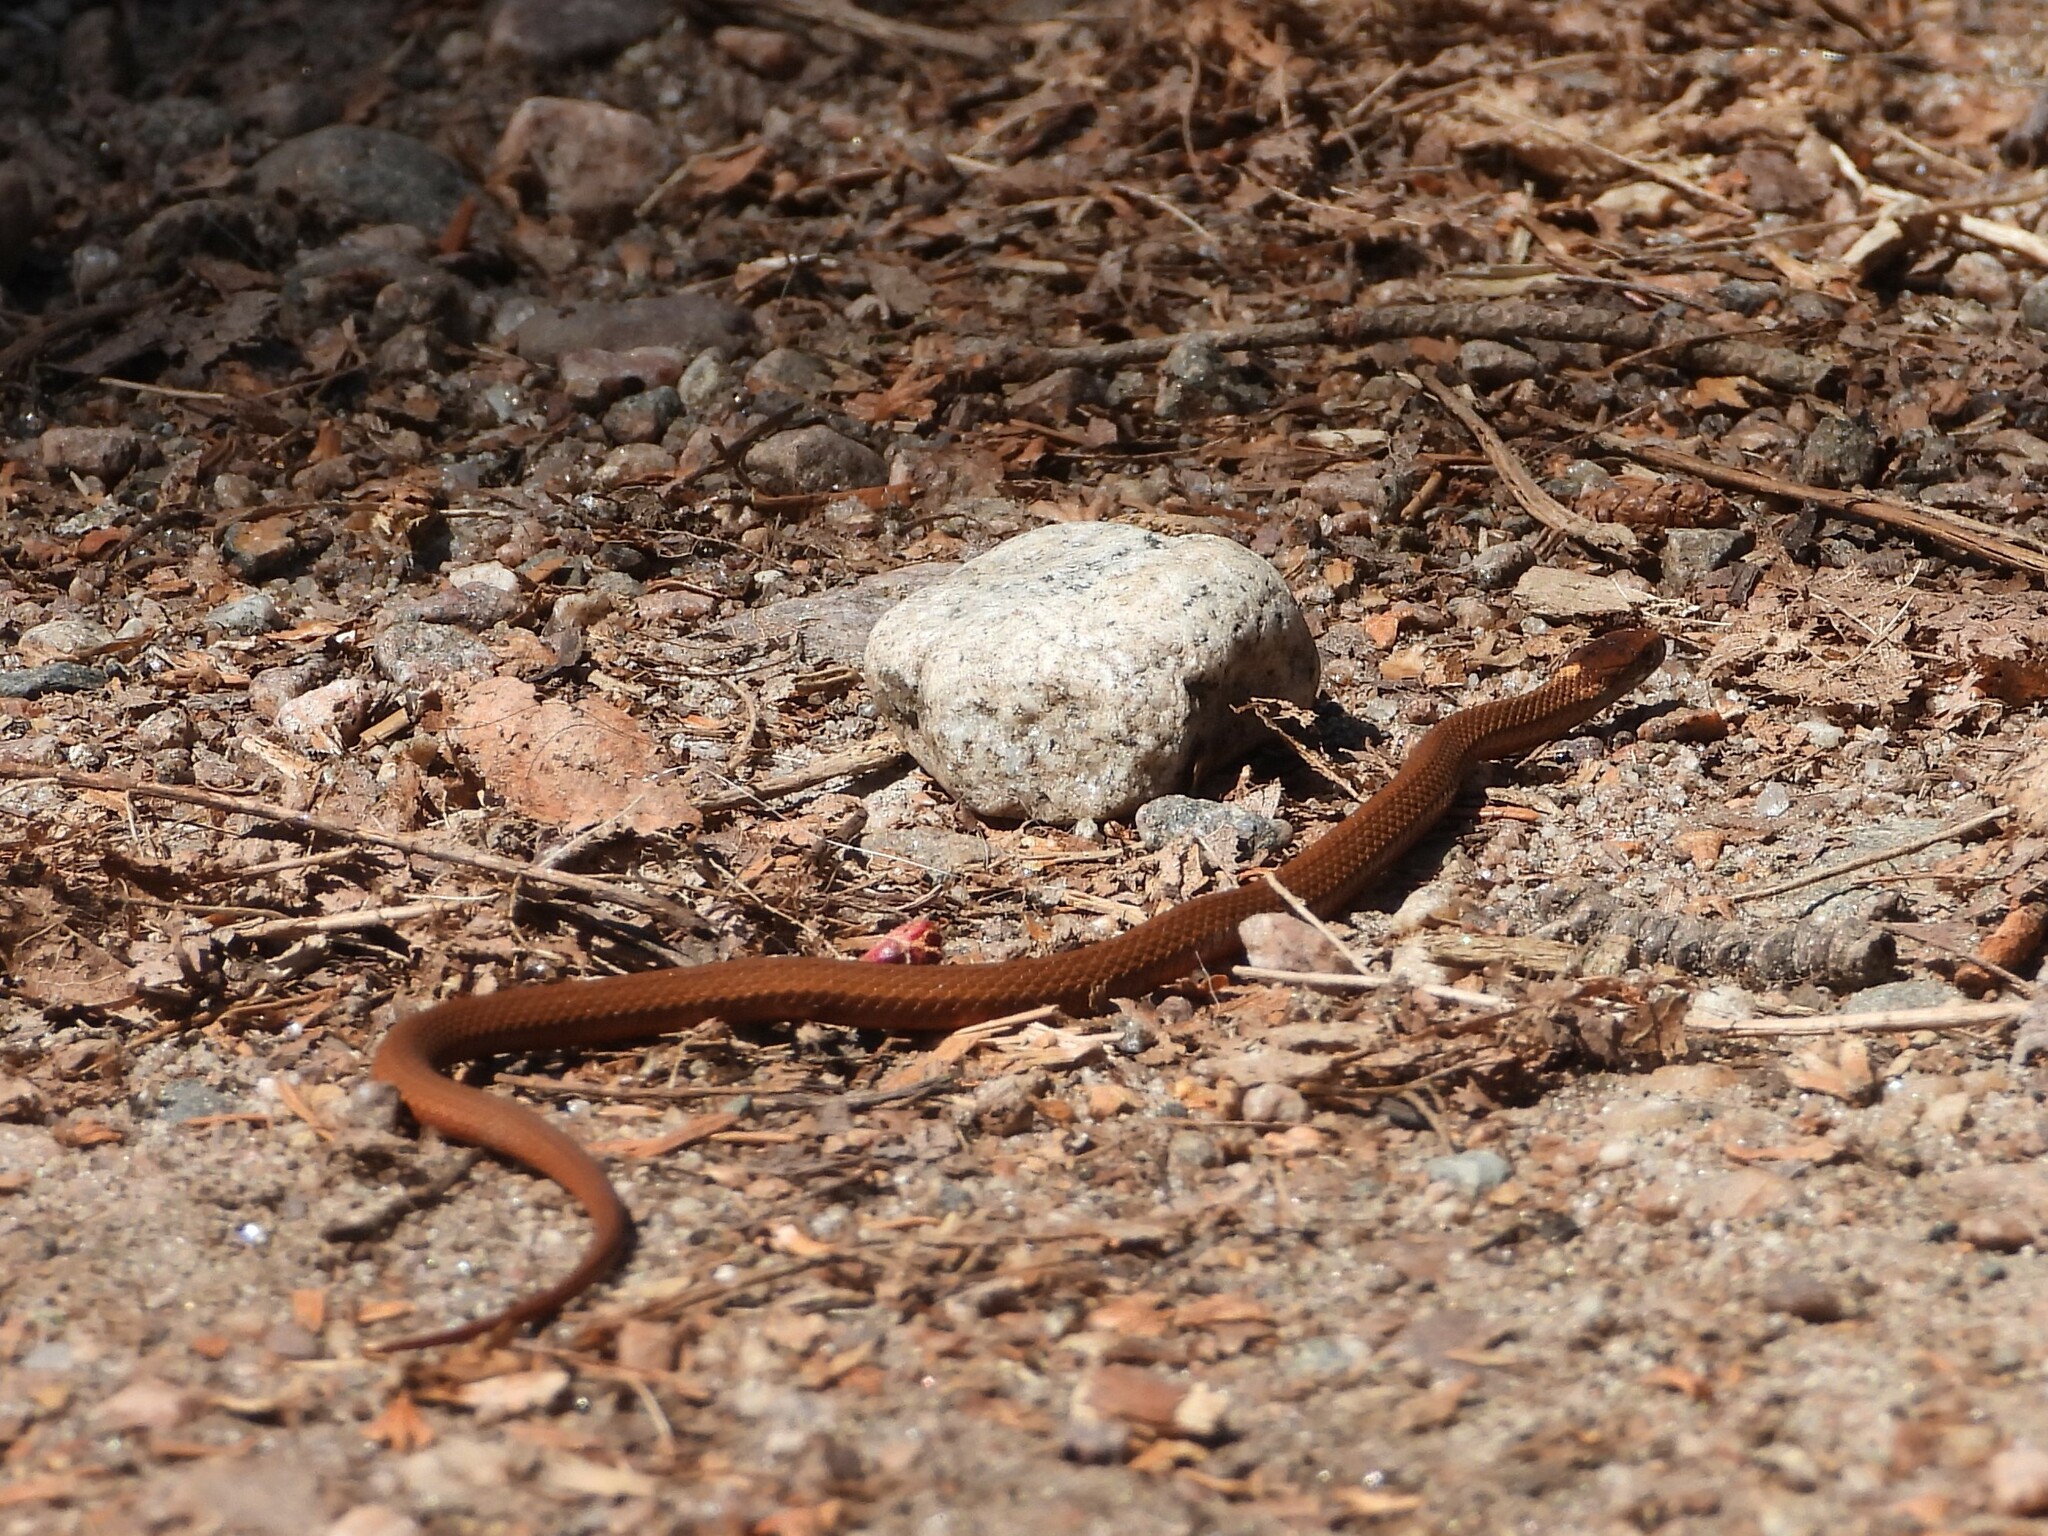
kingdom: Animalia
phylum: Chordata
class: Squamata
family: Colubridae
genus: Storeria
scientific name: Storeria occipitomaculata
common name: Redbelly snake
